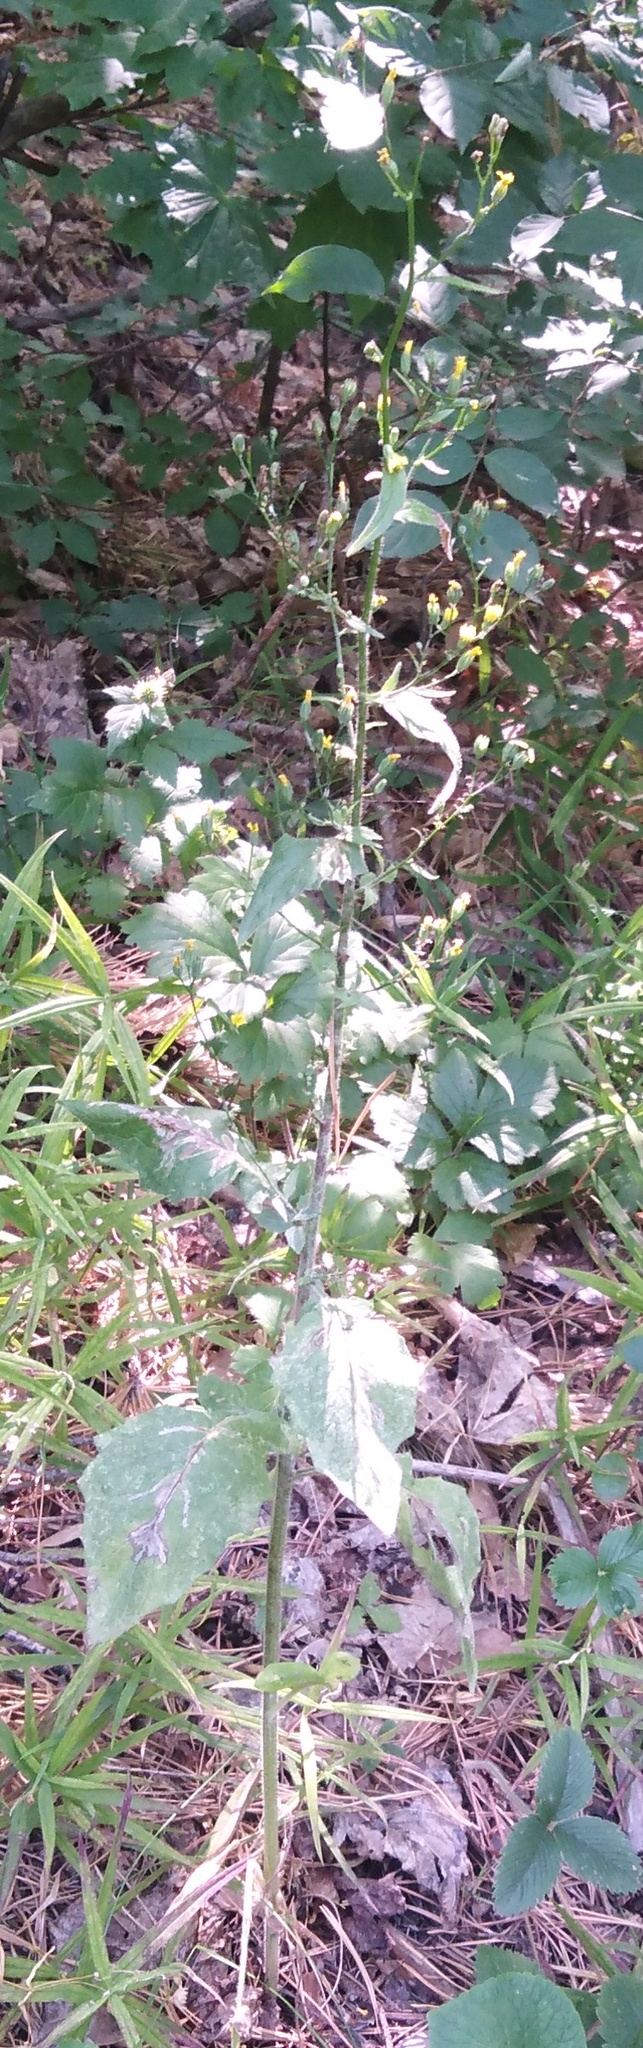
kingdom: Plantae
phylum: Tracheophyta
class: Magnoliopsida
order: Asterales
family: Asteraceae
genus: Lapsana
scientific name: Lapsana communis
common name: Nipplewort
